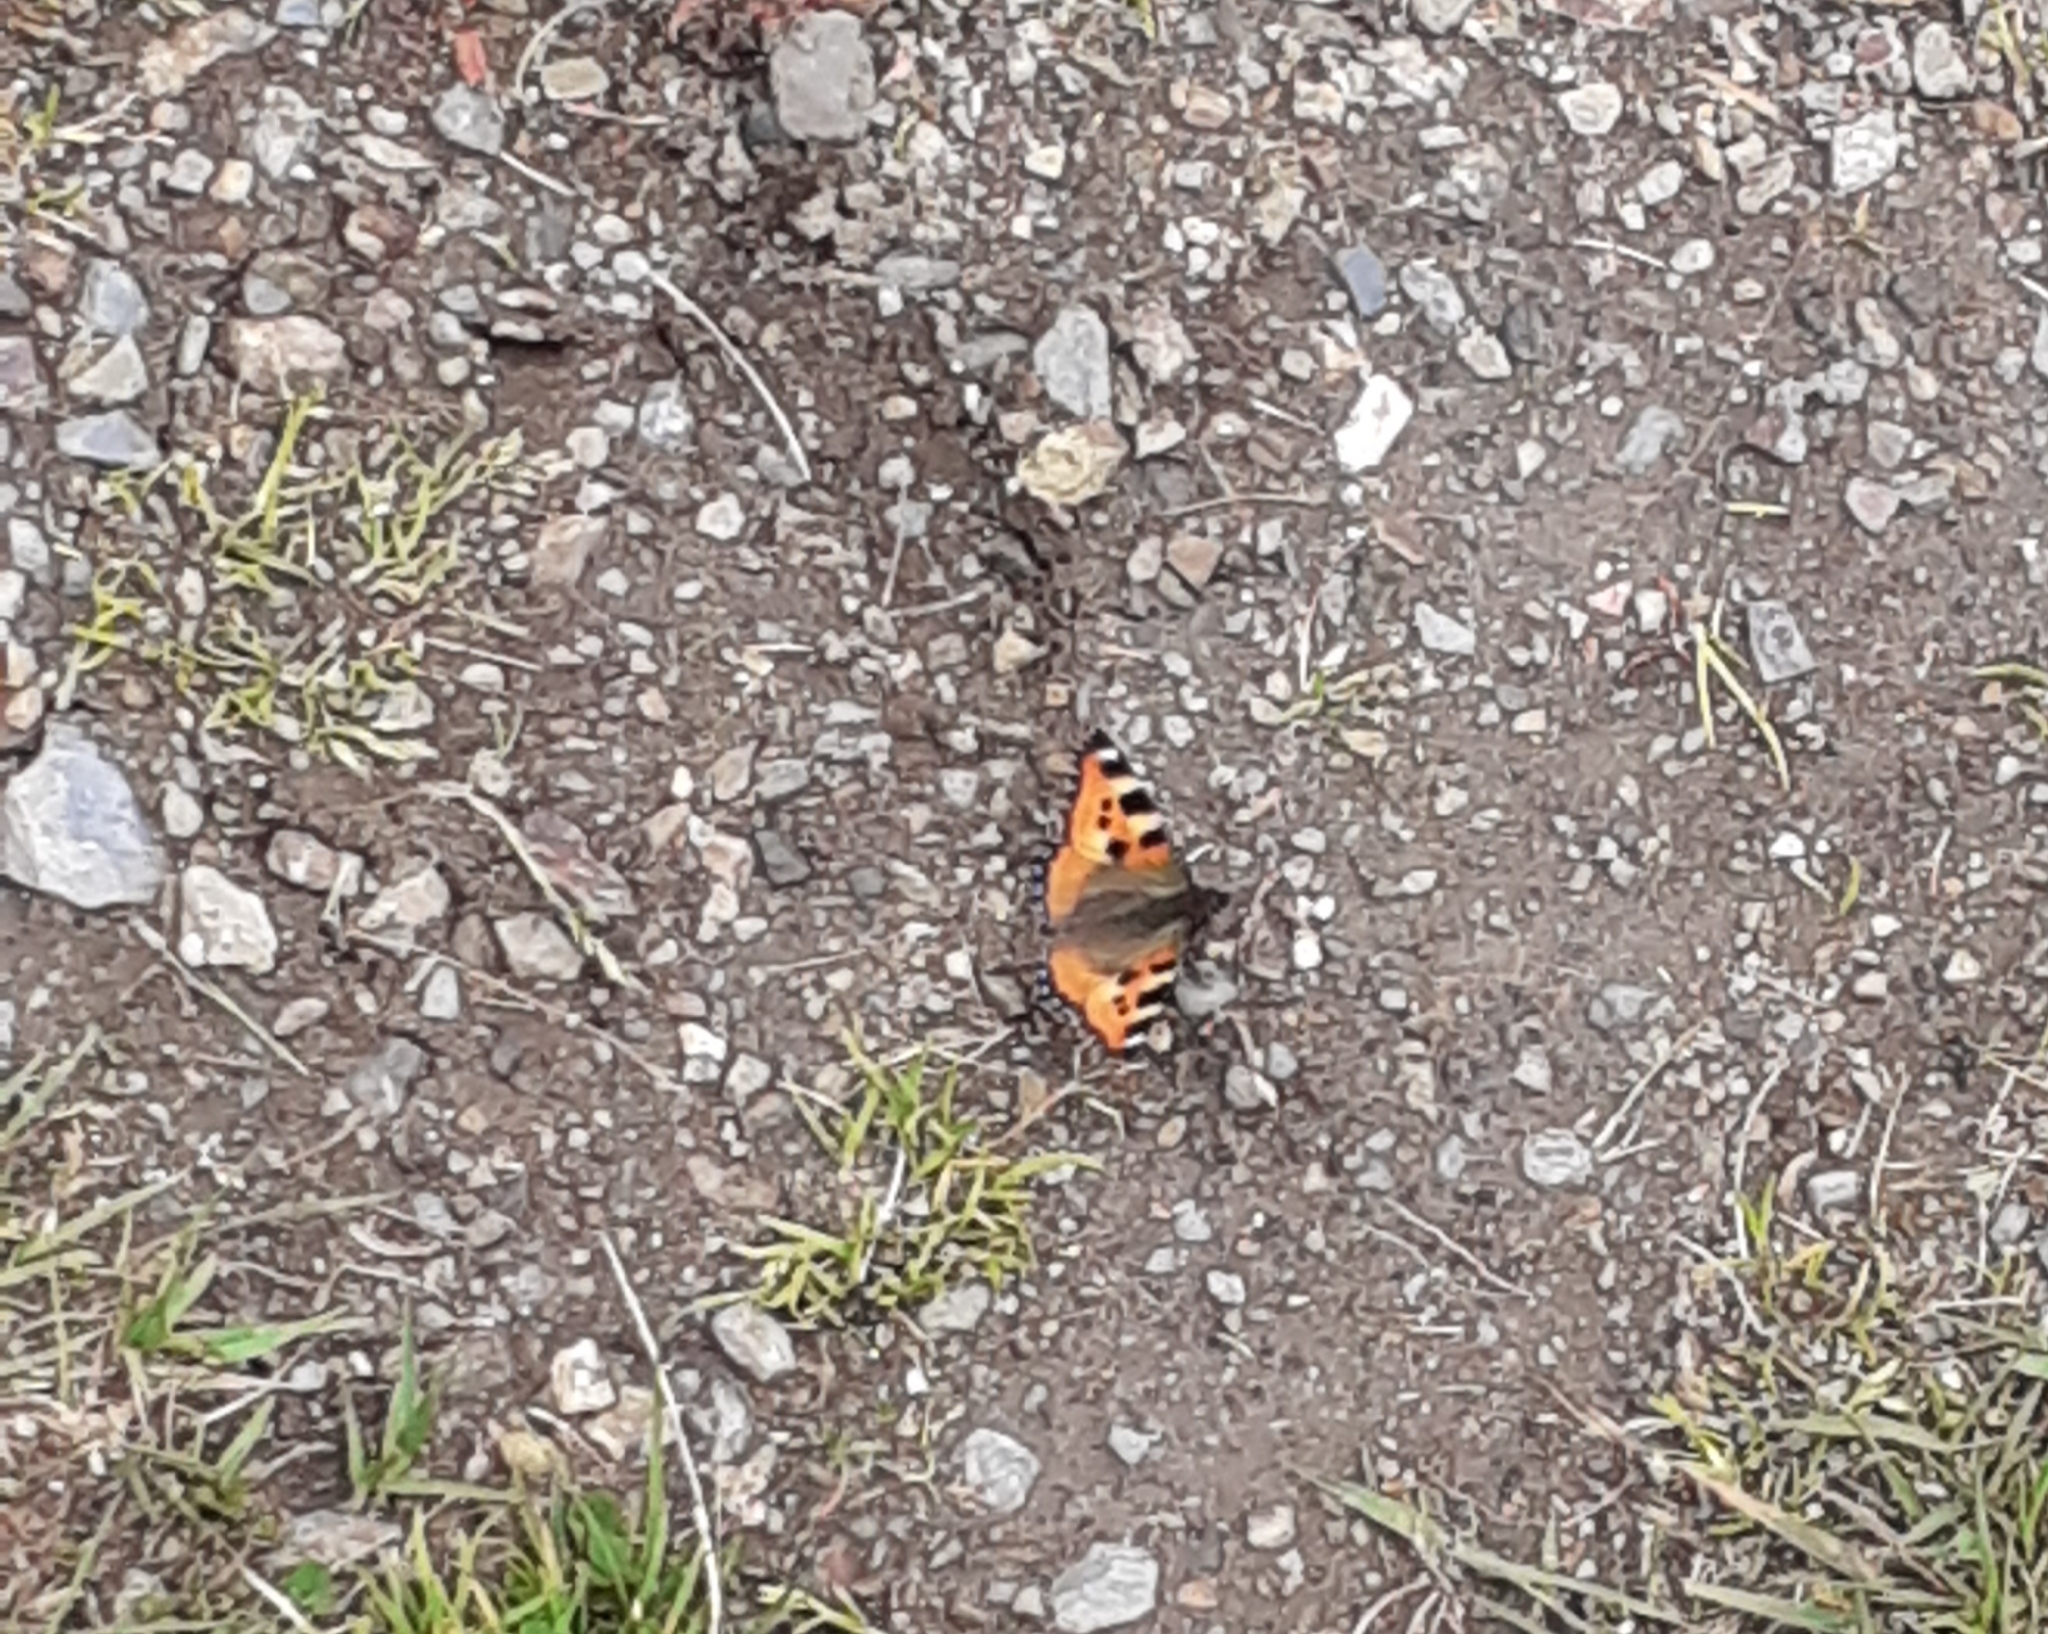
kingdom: Animalia
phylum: Arthropoda
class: Insecta
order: Lepidoptera
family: Nymphalidae
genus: Aglais
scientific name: Aglais urticae
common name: Small tortoiseshell
